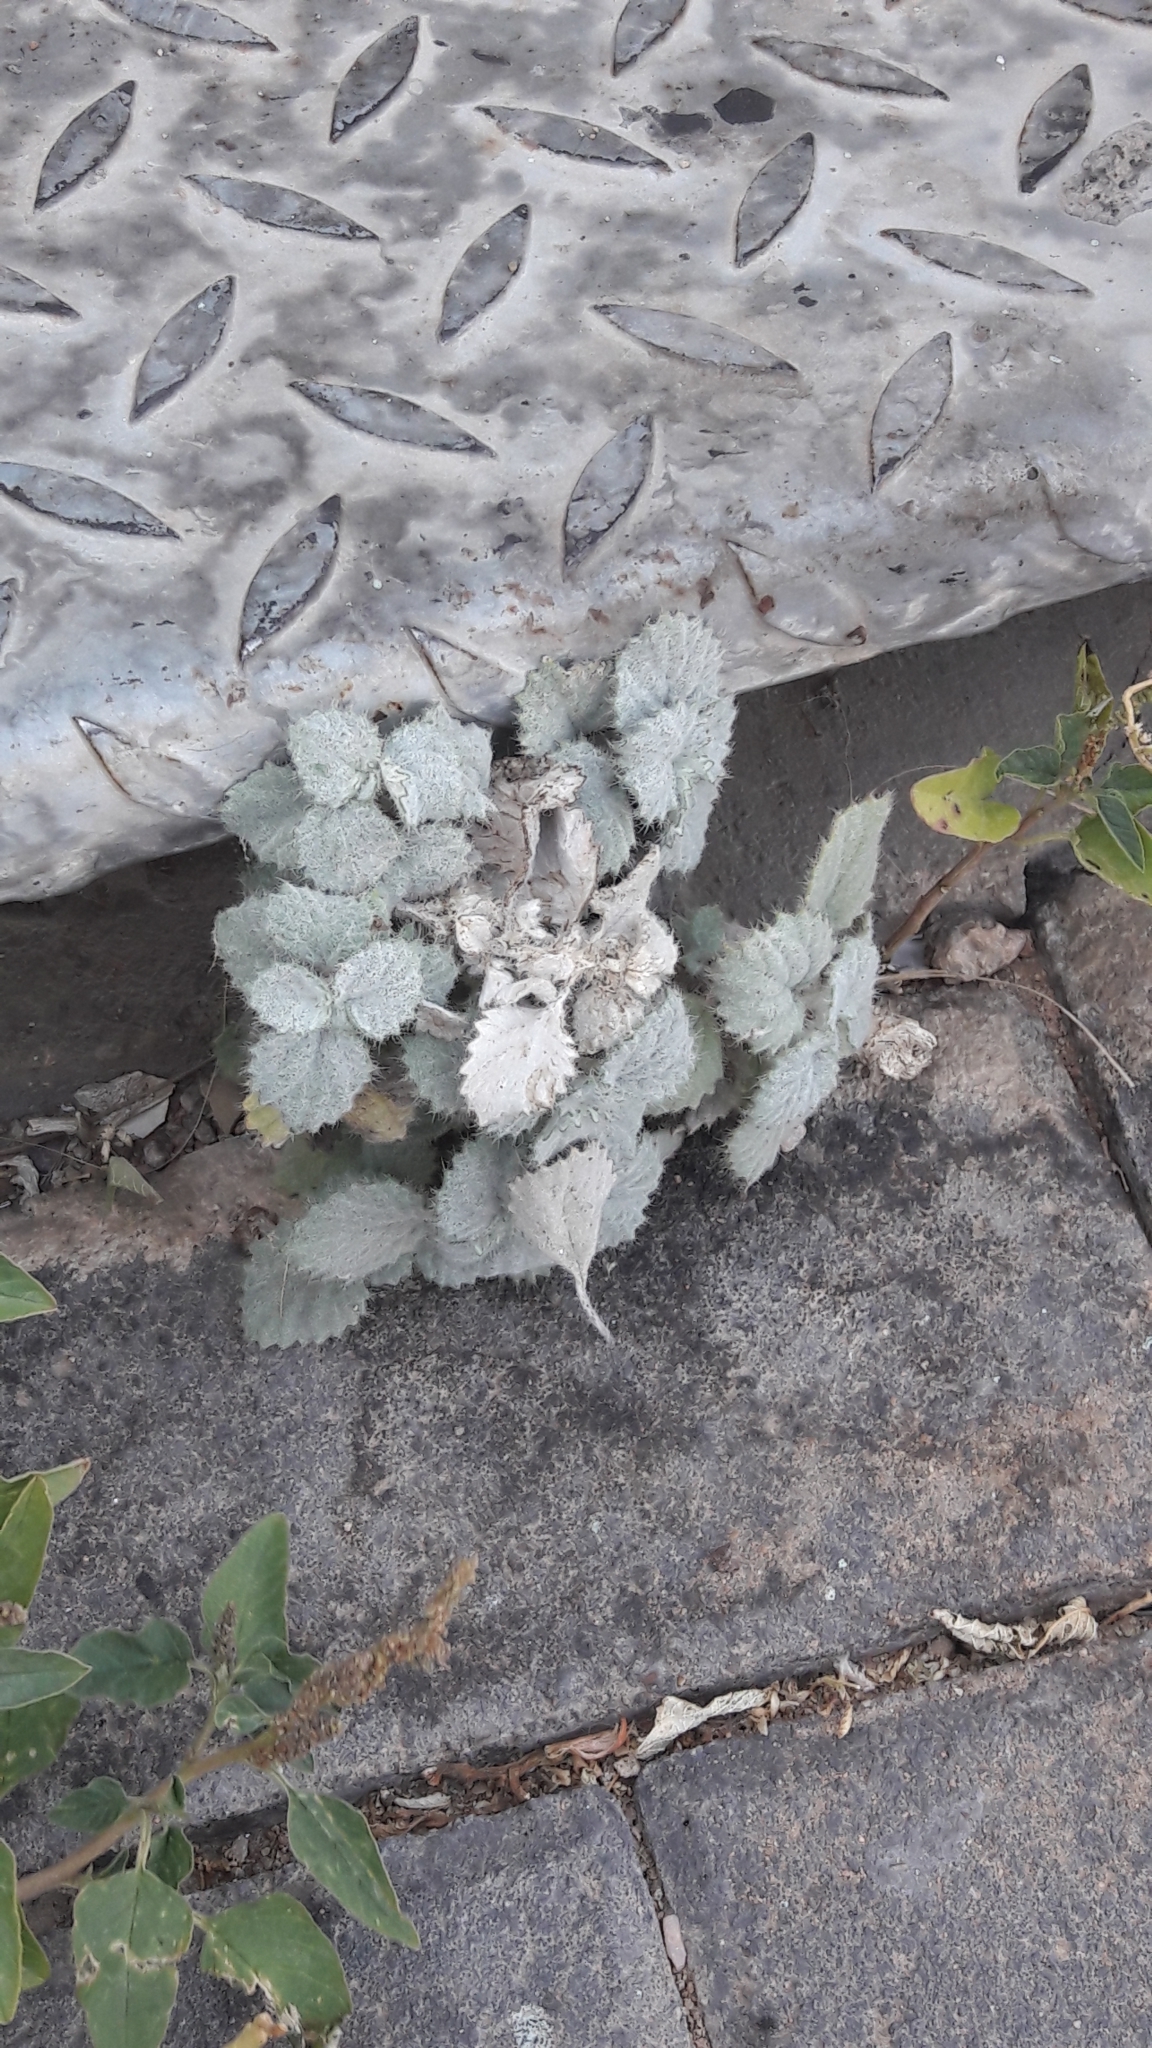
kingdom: Plantae
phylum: Tracheophyta
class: Magnoliopsida
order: Rosales
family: Urticaceae
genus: Forsskaolea
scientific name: Forsskaolea tenacissima
